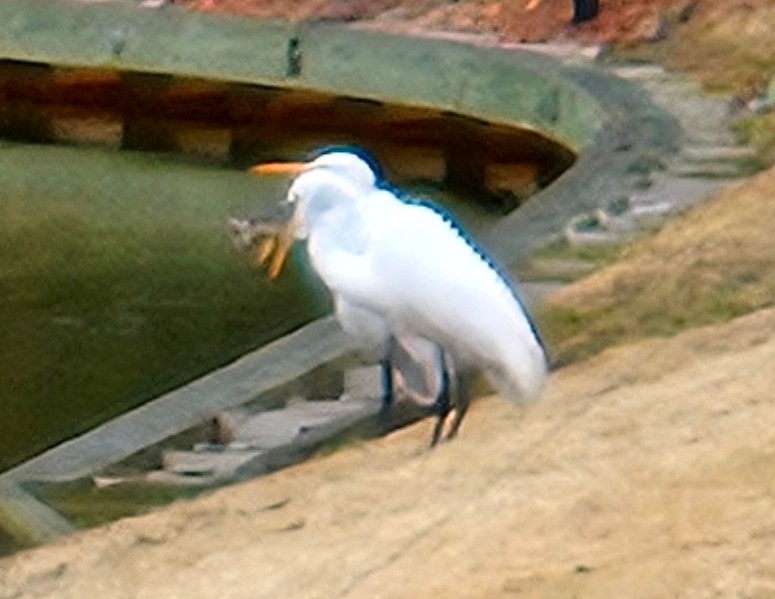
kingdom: Animalia
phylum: Chordata
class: Aves
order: Pelecaniformes
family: Ardeidae
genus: Ardea
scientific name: Ardea alba
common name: Great egret
